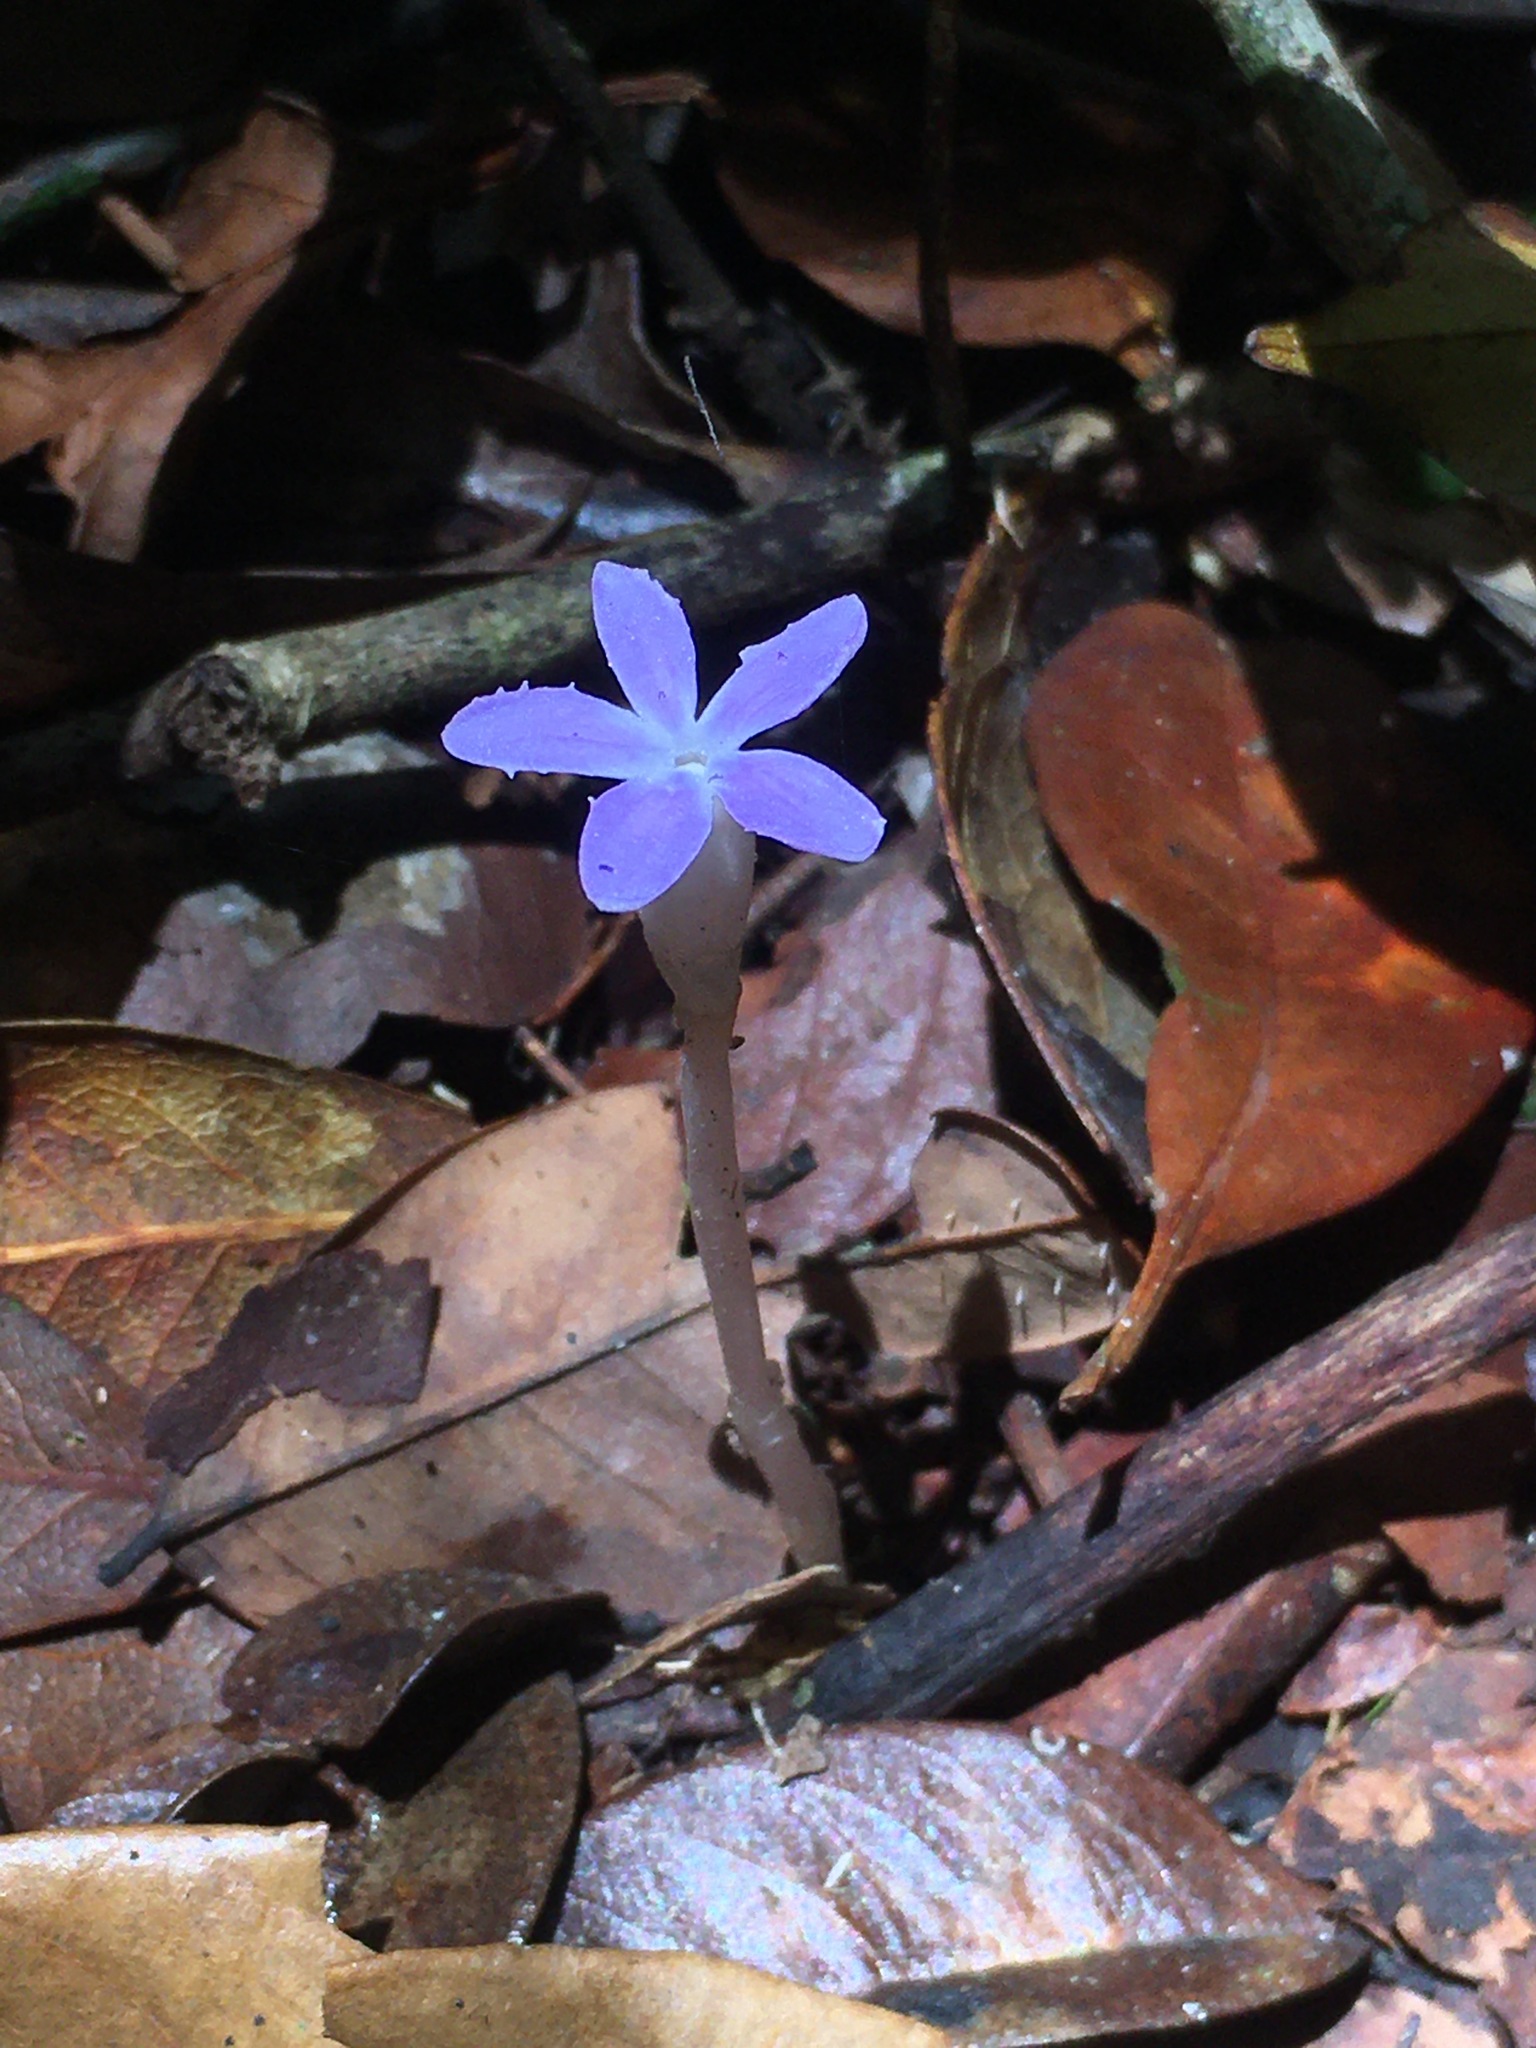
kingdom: Plantae
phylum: Tracheophyta
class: Magnoliopsida
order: Gentianales
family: Gentianaceae
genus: Voyria
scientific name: Voyria obconica
